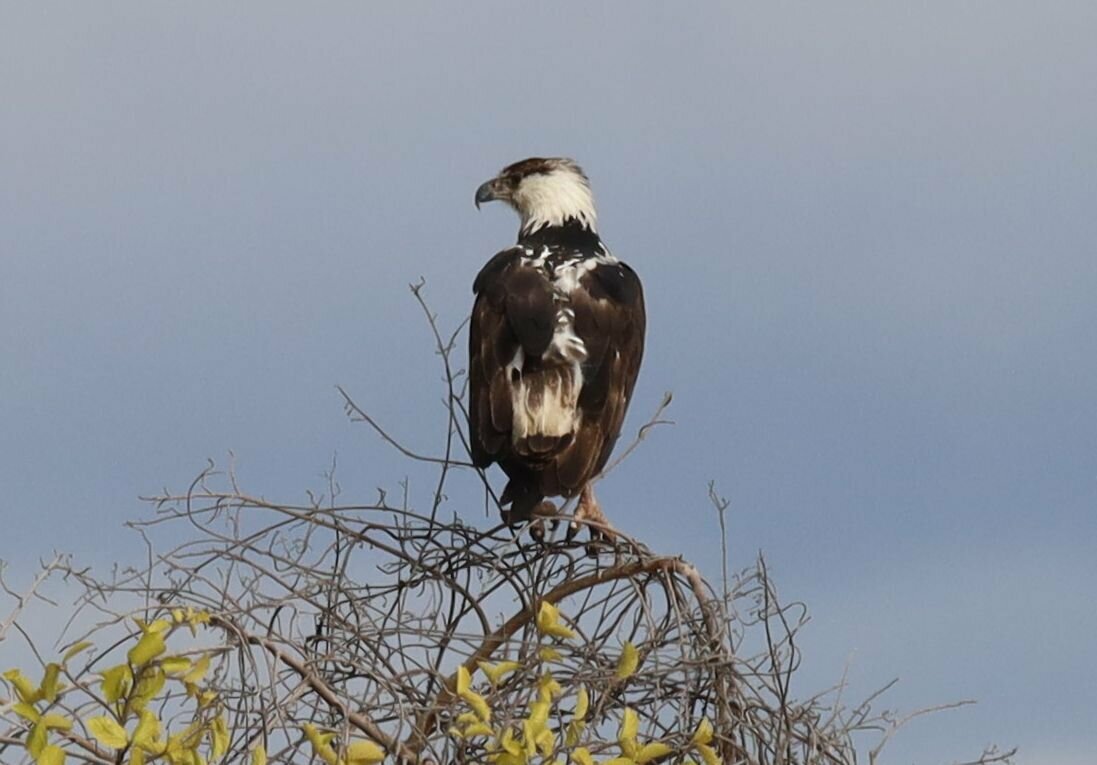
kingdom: Animalia
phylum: Chordata
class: Aves
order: Accipitriformes
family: Accipitridae
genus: Haliaeetus
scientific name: Haliaeetus vocifer
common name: African fish eagle
